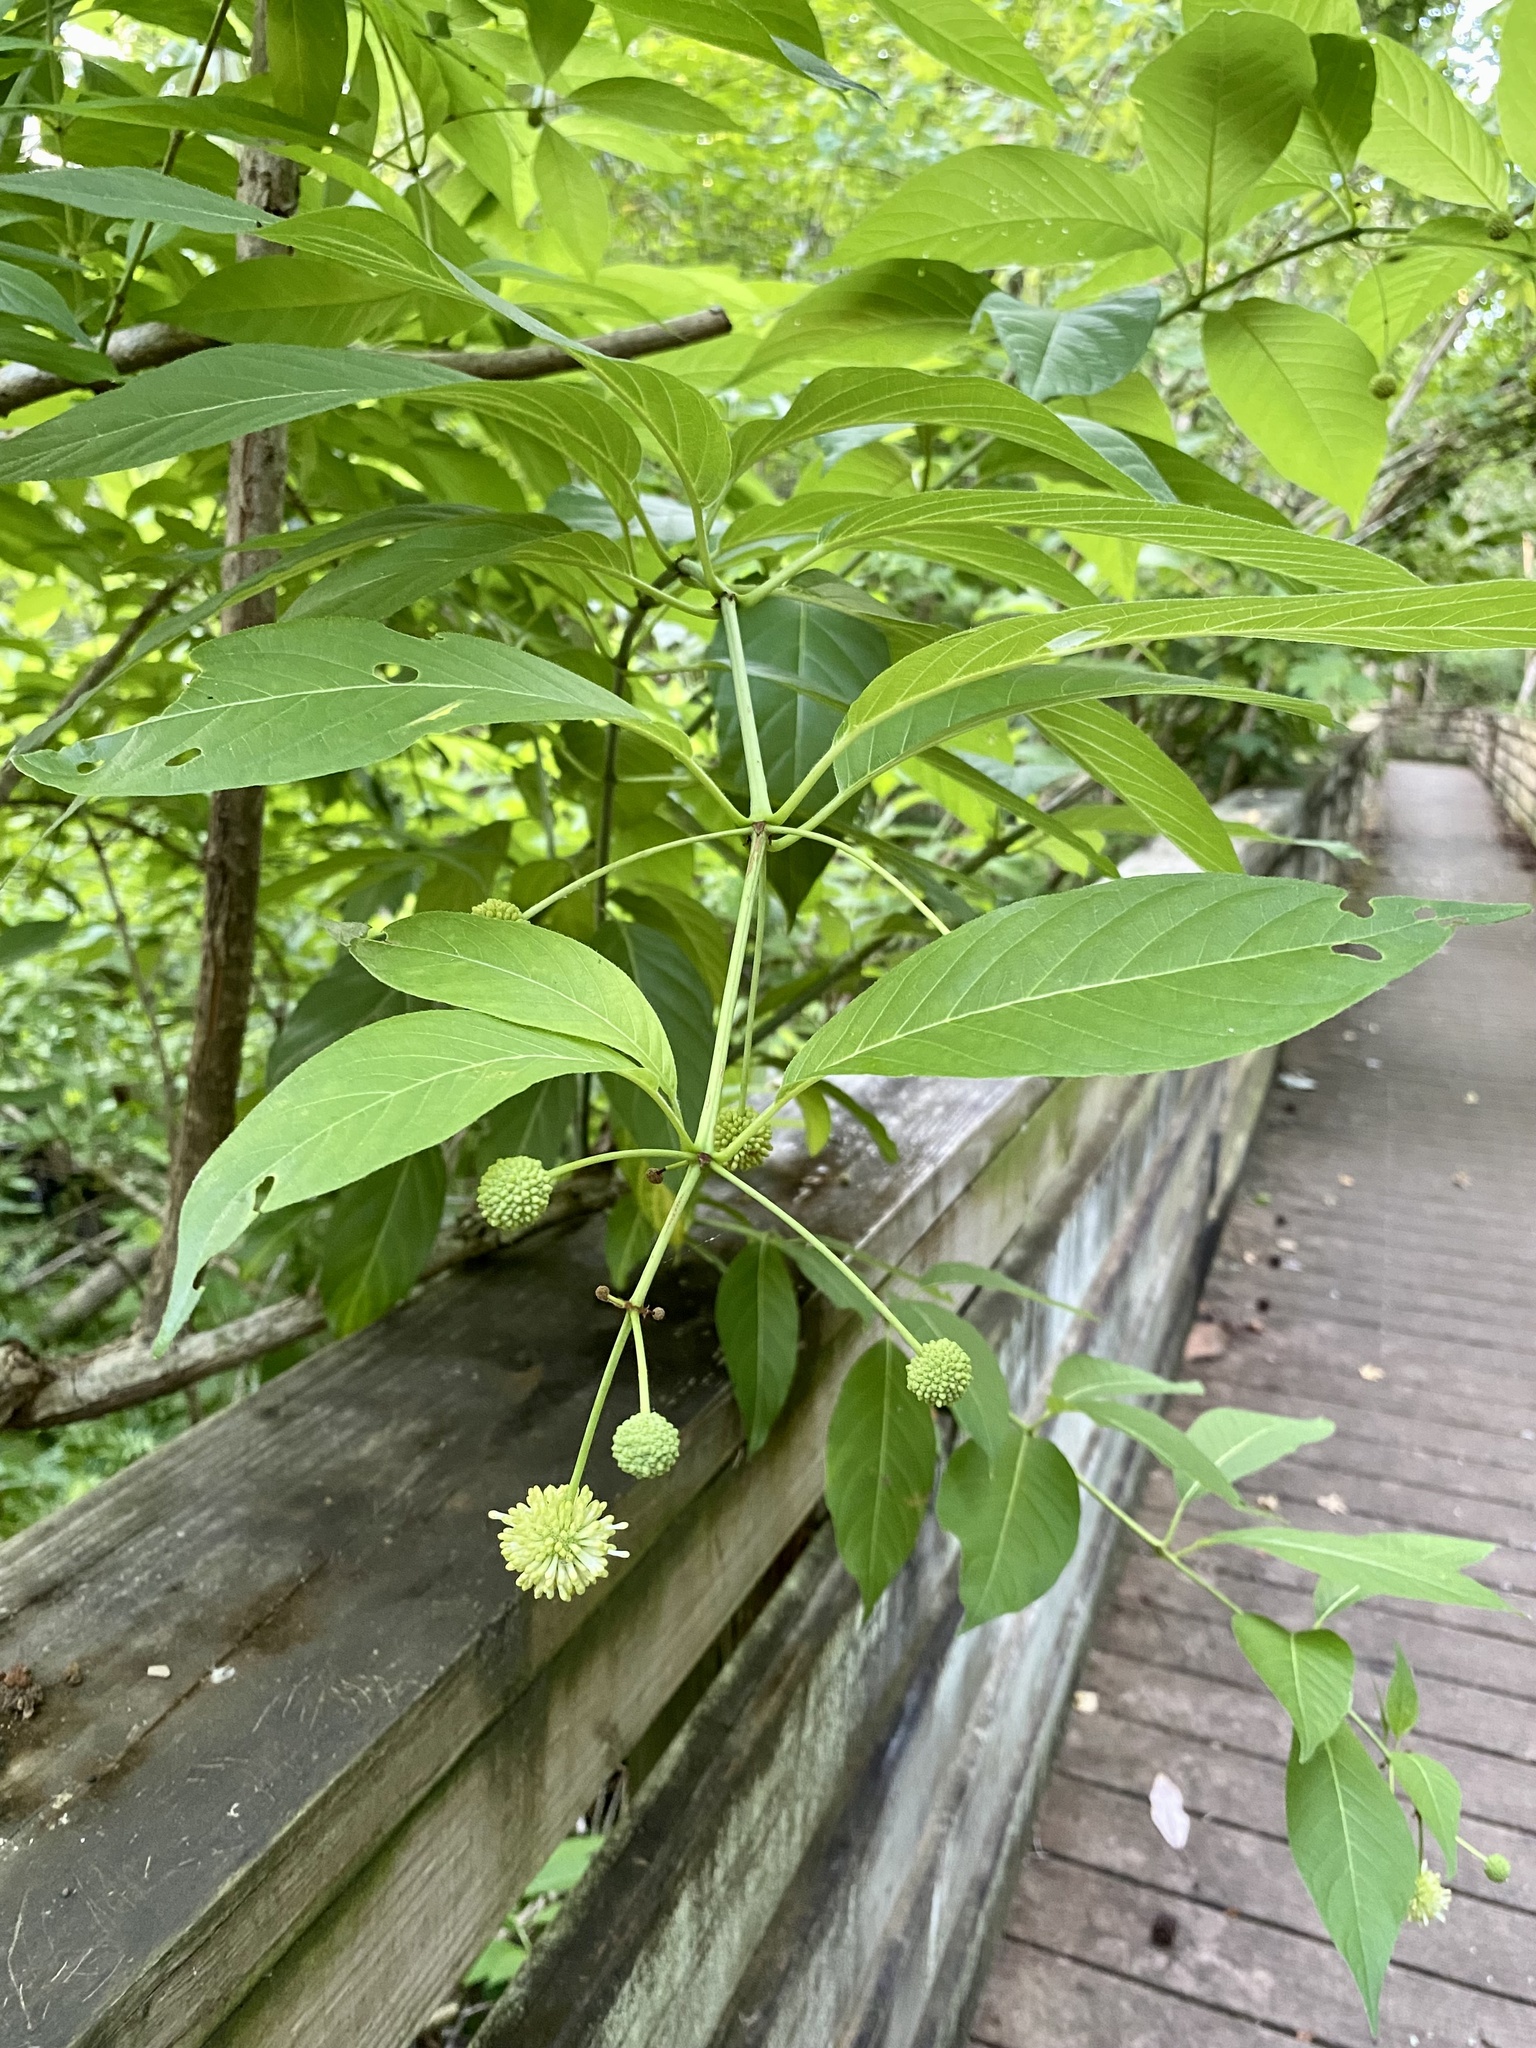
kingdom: Plantae
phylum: Tracheophyta
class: Magnoliopsida
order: Gentianales
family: Rubiaceae
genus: Cephalanthus
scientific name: Cephalanthus occidentalis
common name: Button-willow
